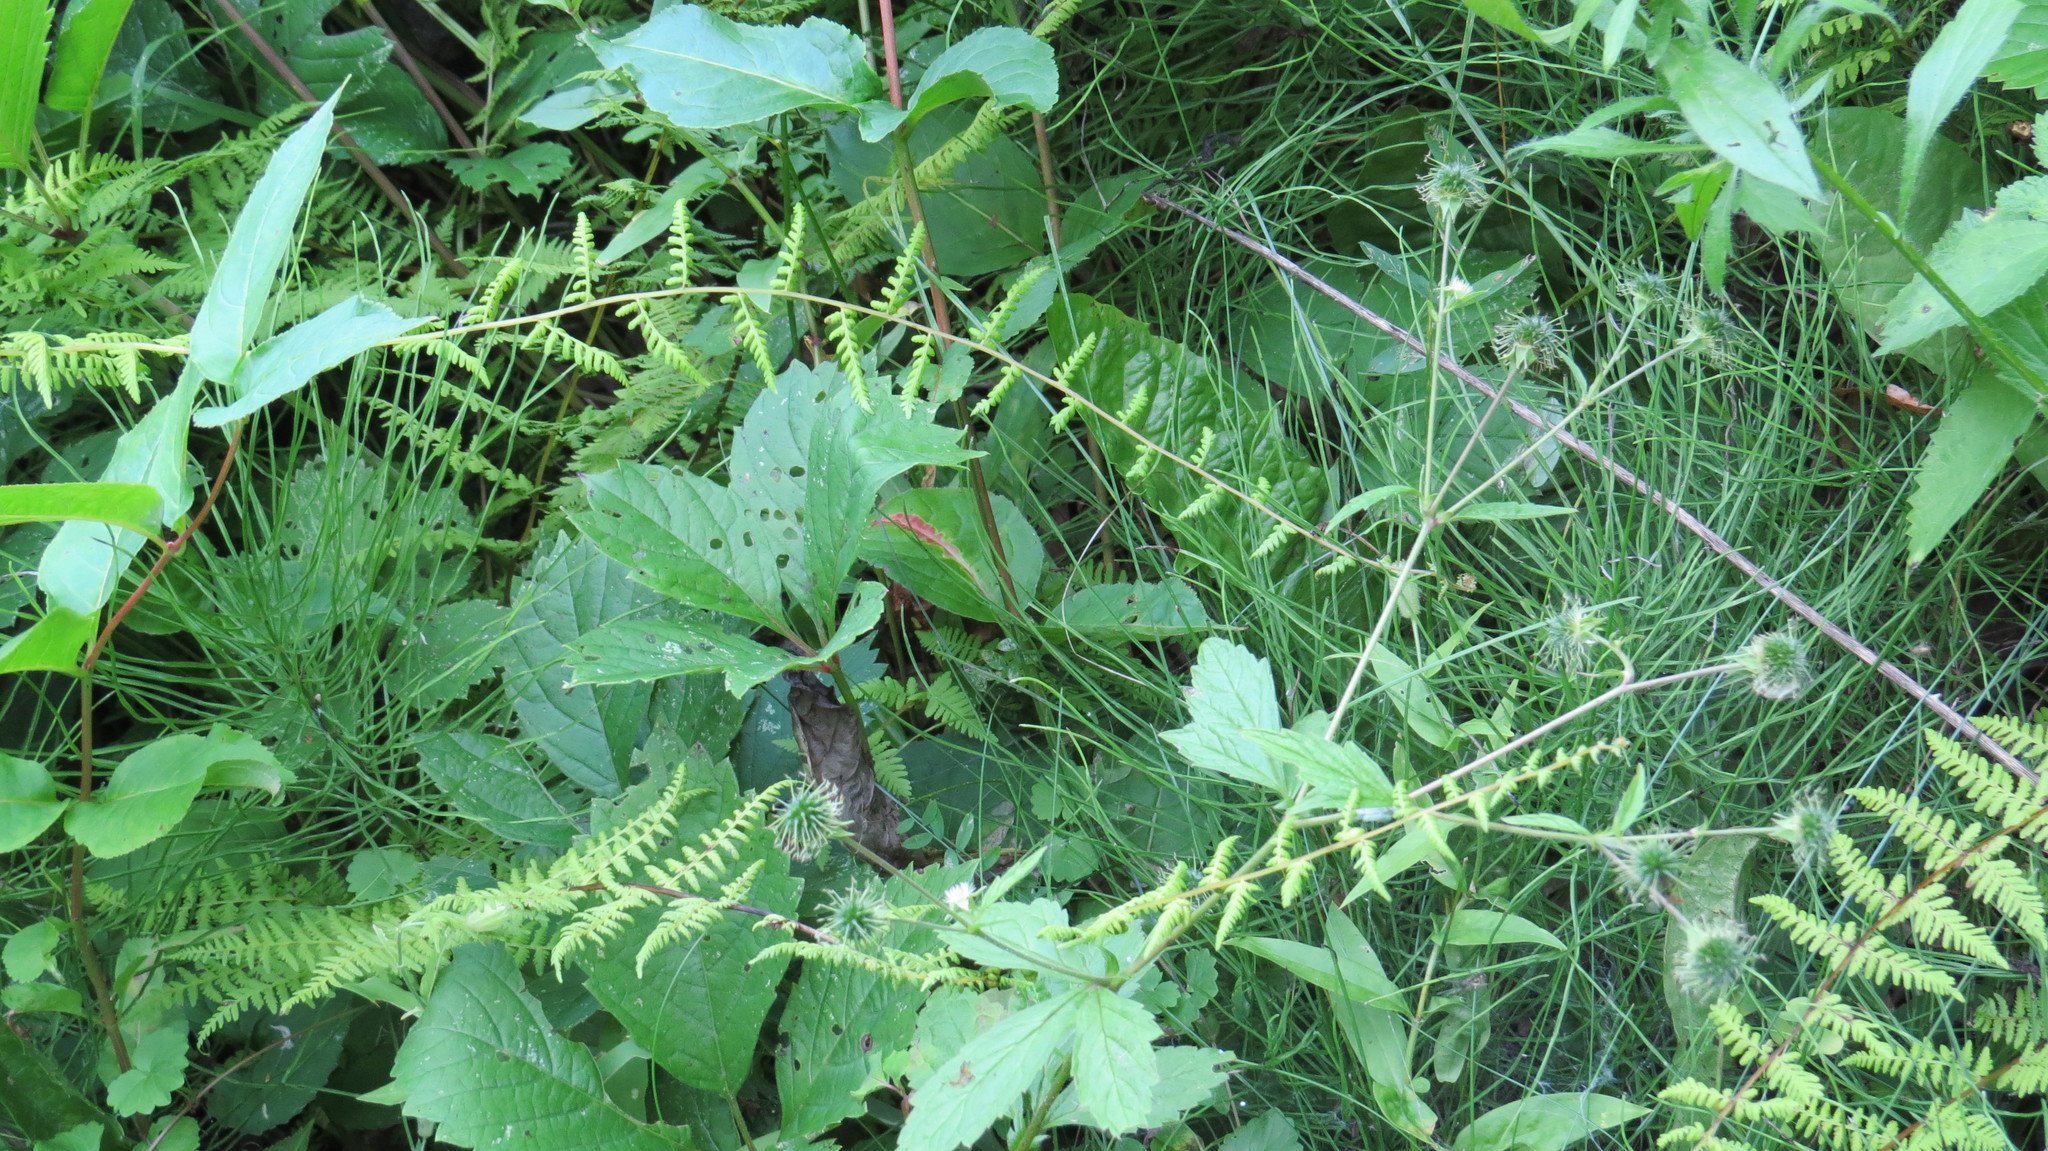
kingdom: Plantae
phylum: Tracheophyta
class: Polypodiopsida
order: Polypodiales
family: Cystopteridaceae
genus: Cystopteris
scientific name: Cystopteris bulbifera
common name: Bulblet bladder fern
